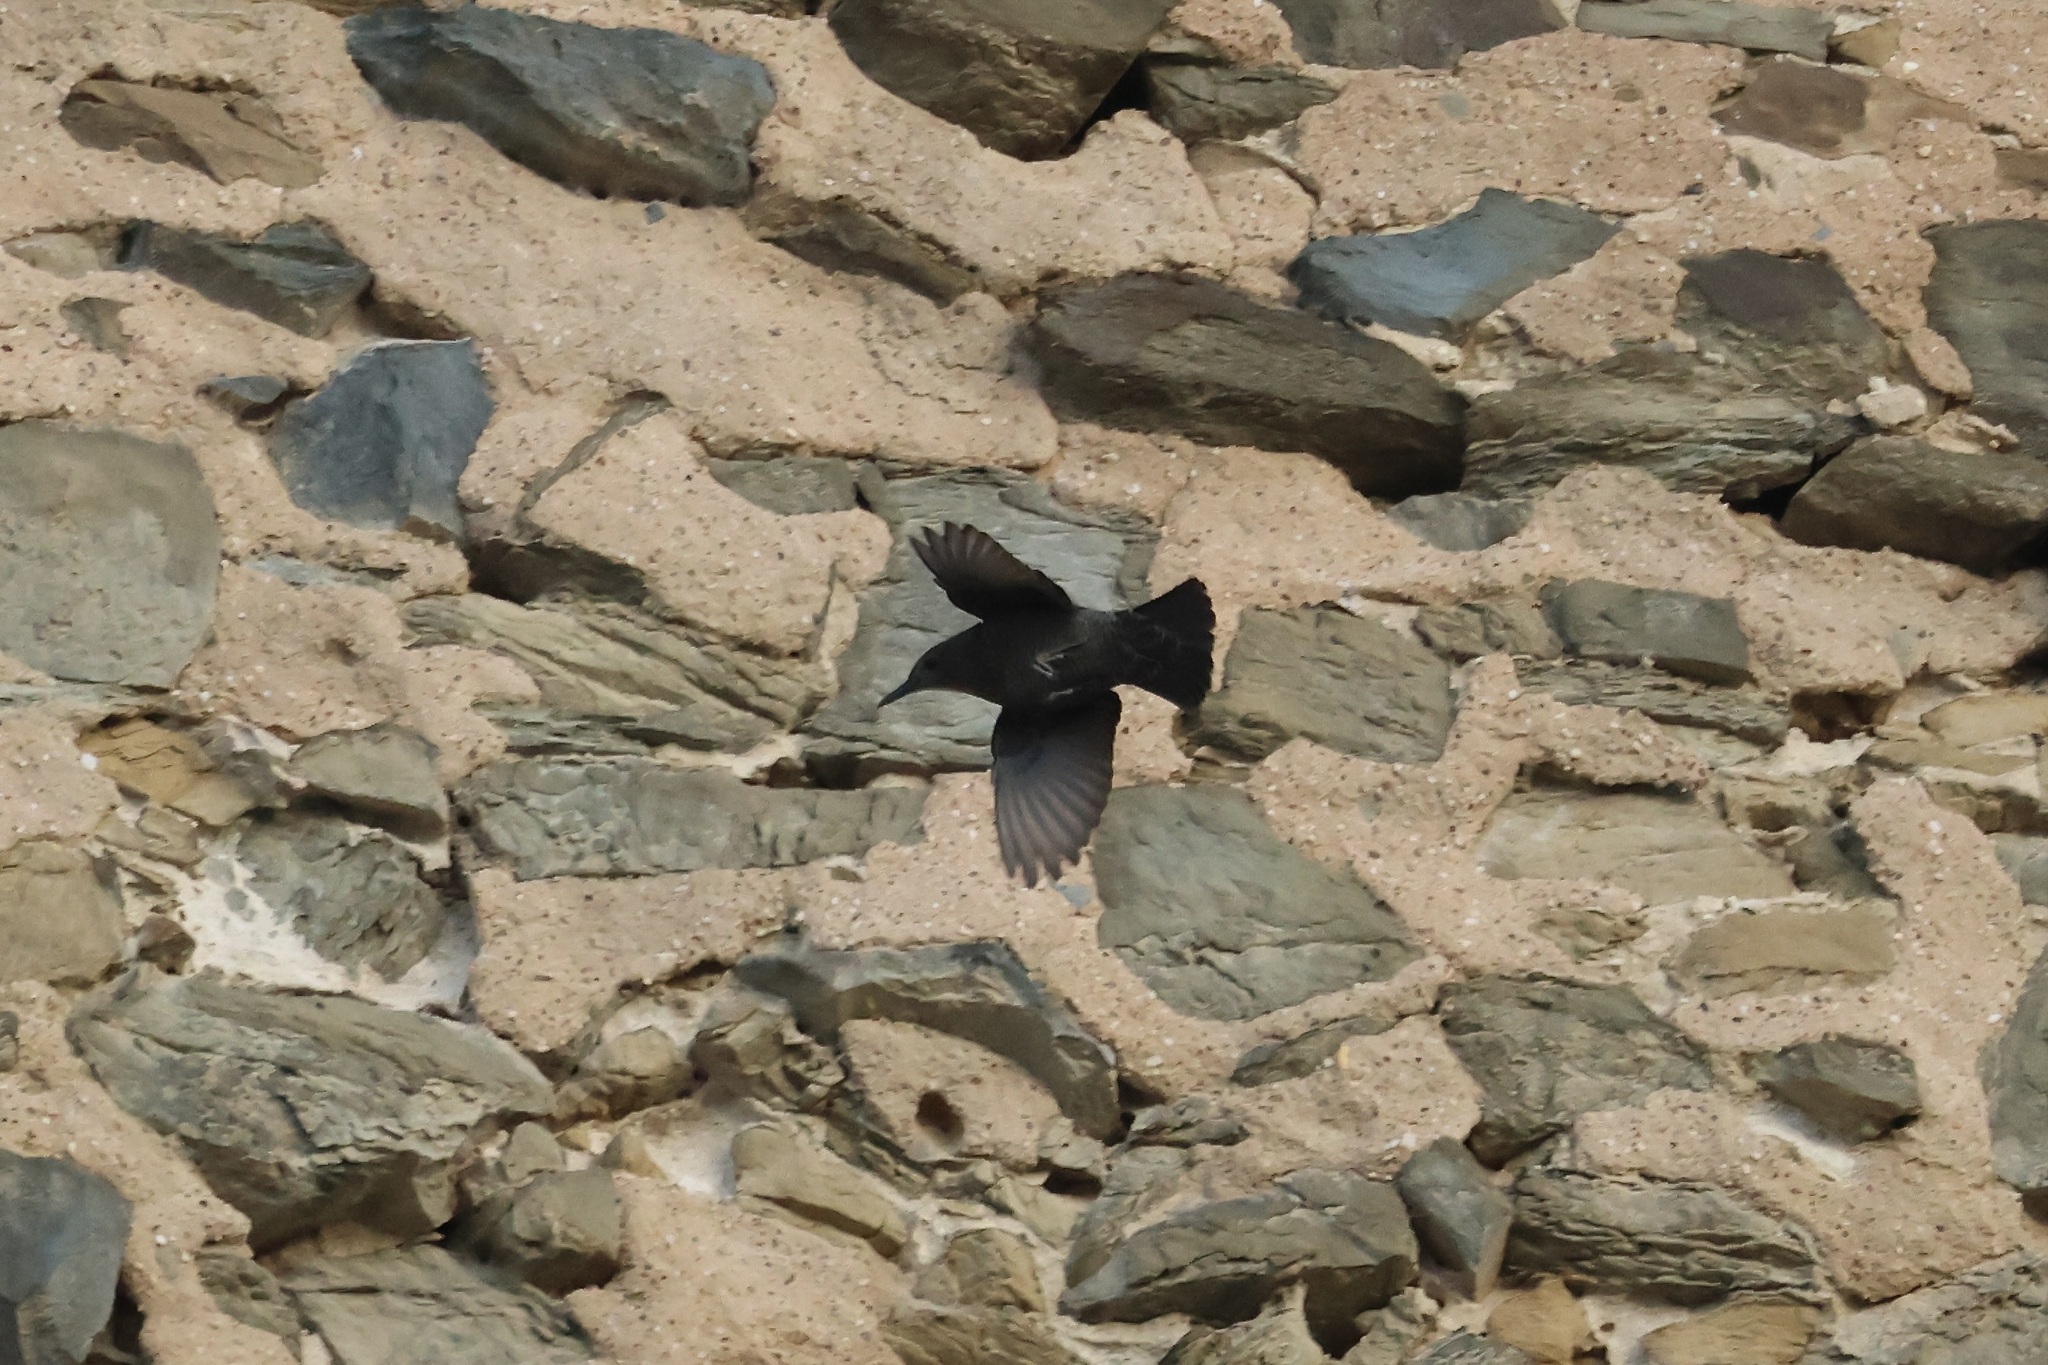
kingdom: Animalia
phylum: Chordata
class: Aves
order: Passeriformes
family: Muscicapidae
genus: Monticola
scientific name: Monticola solitarius
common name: Blue rock thrush
